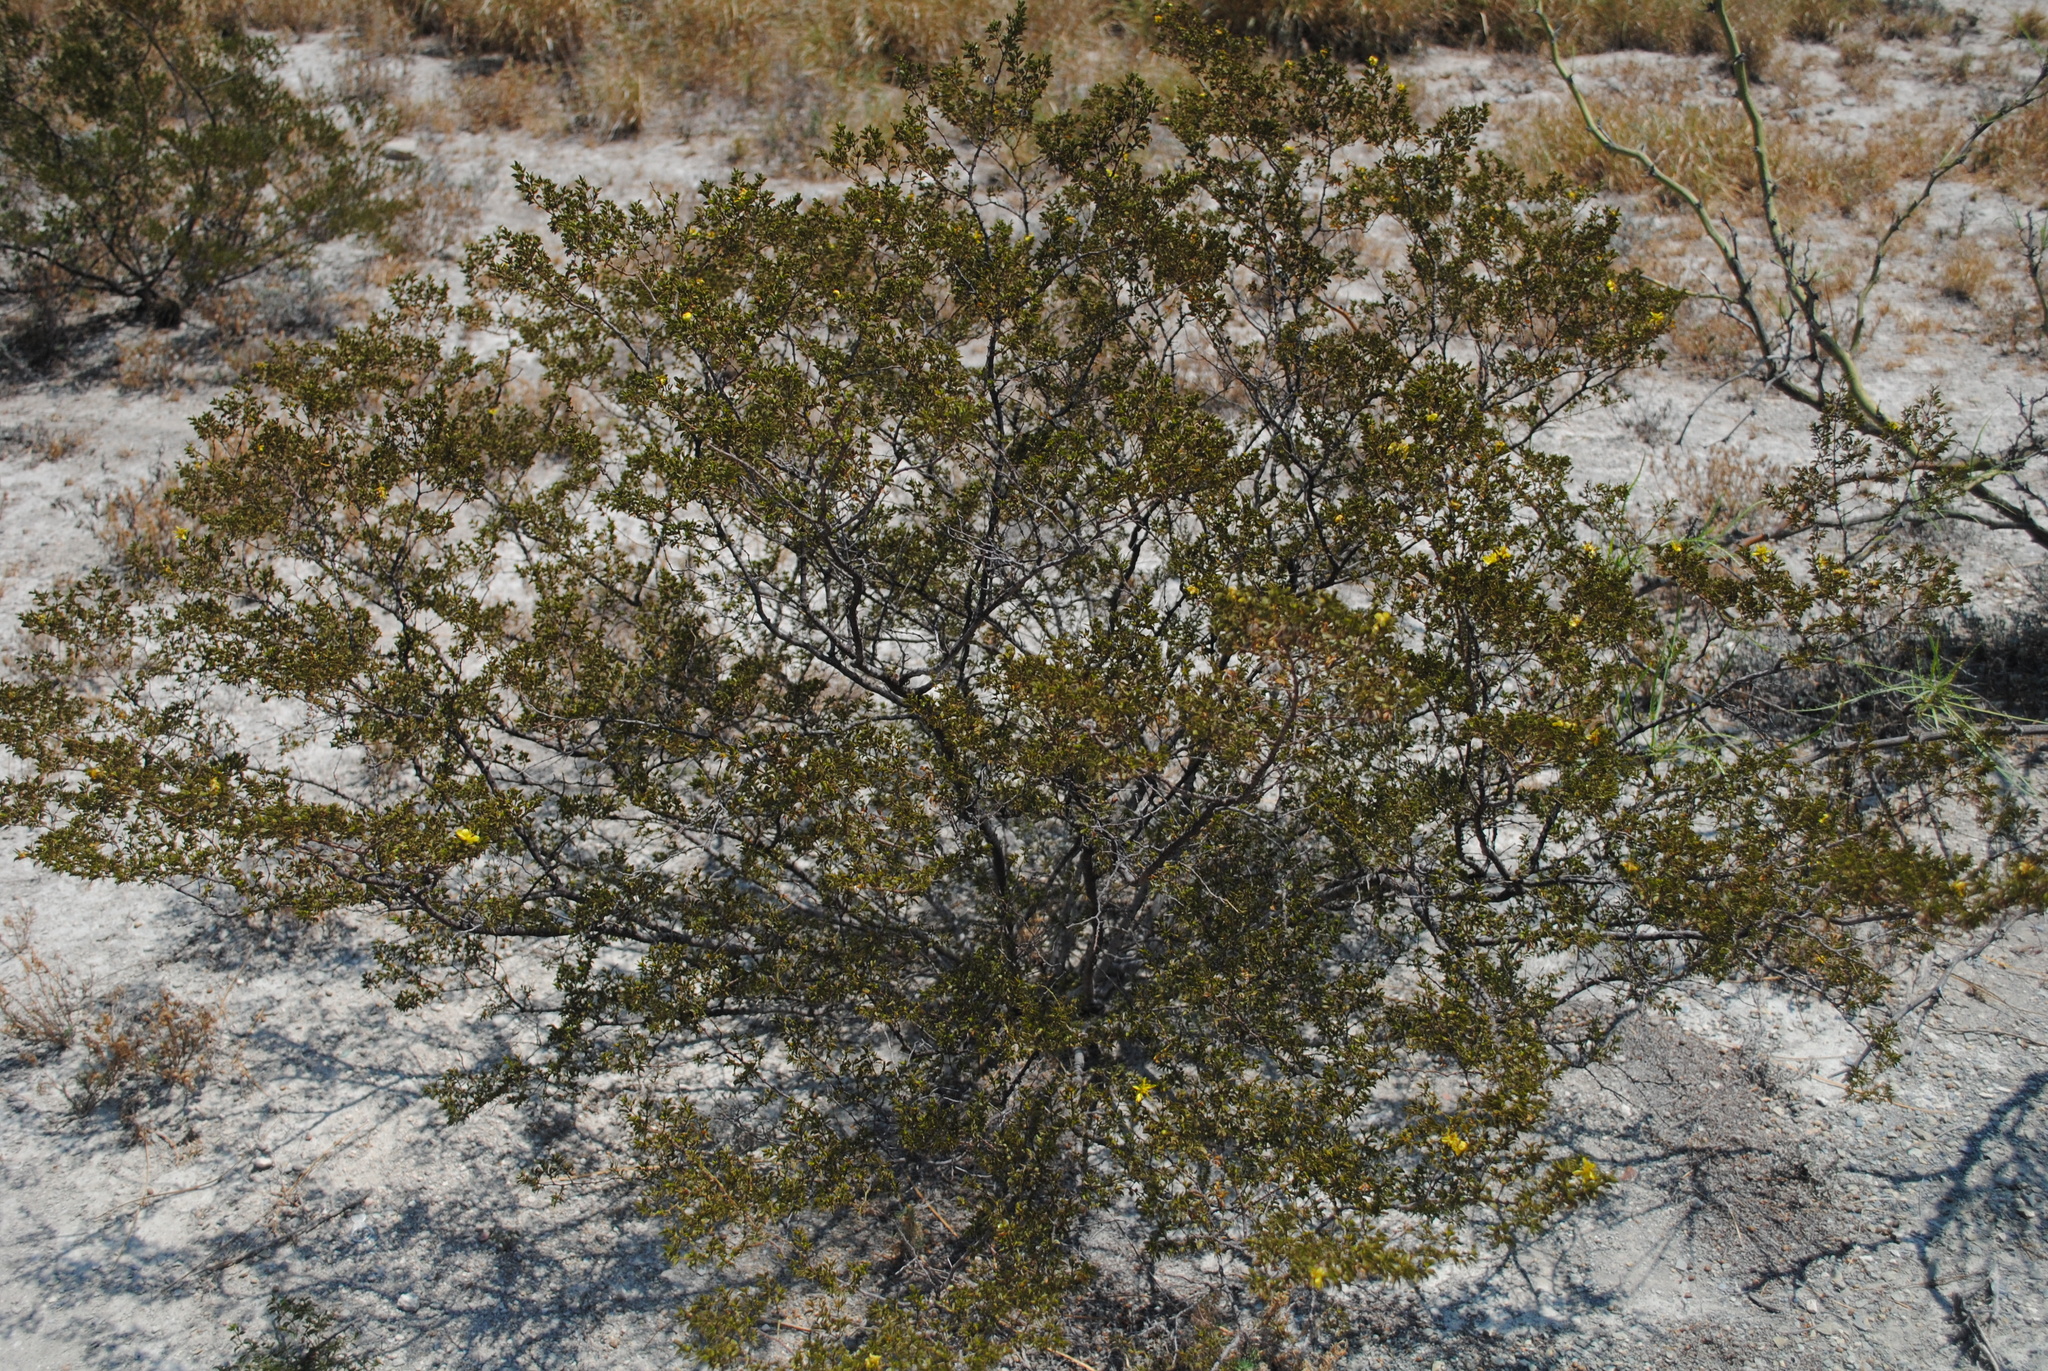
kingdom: Plantae
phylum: Tracheophyta
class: Magnoliopsida
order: Zygophyllales
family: Zygophyllaceae
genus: Larrea
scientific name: Larrea tridentata
